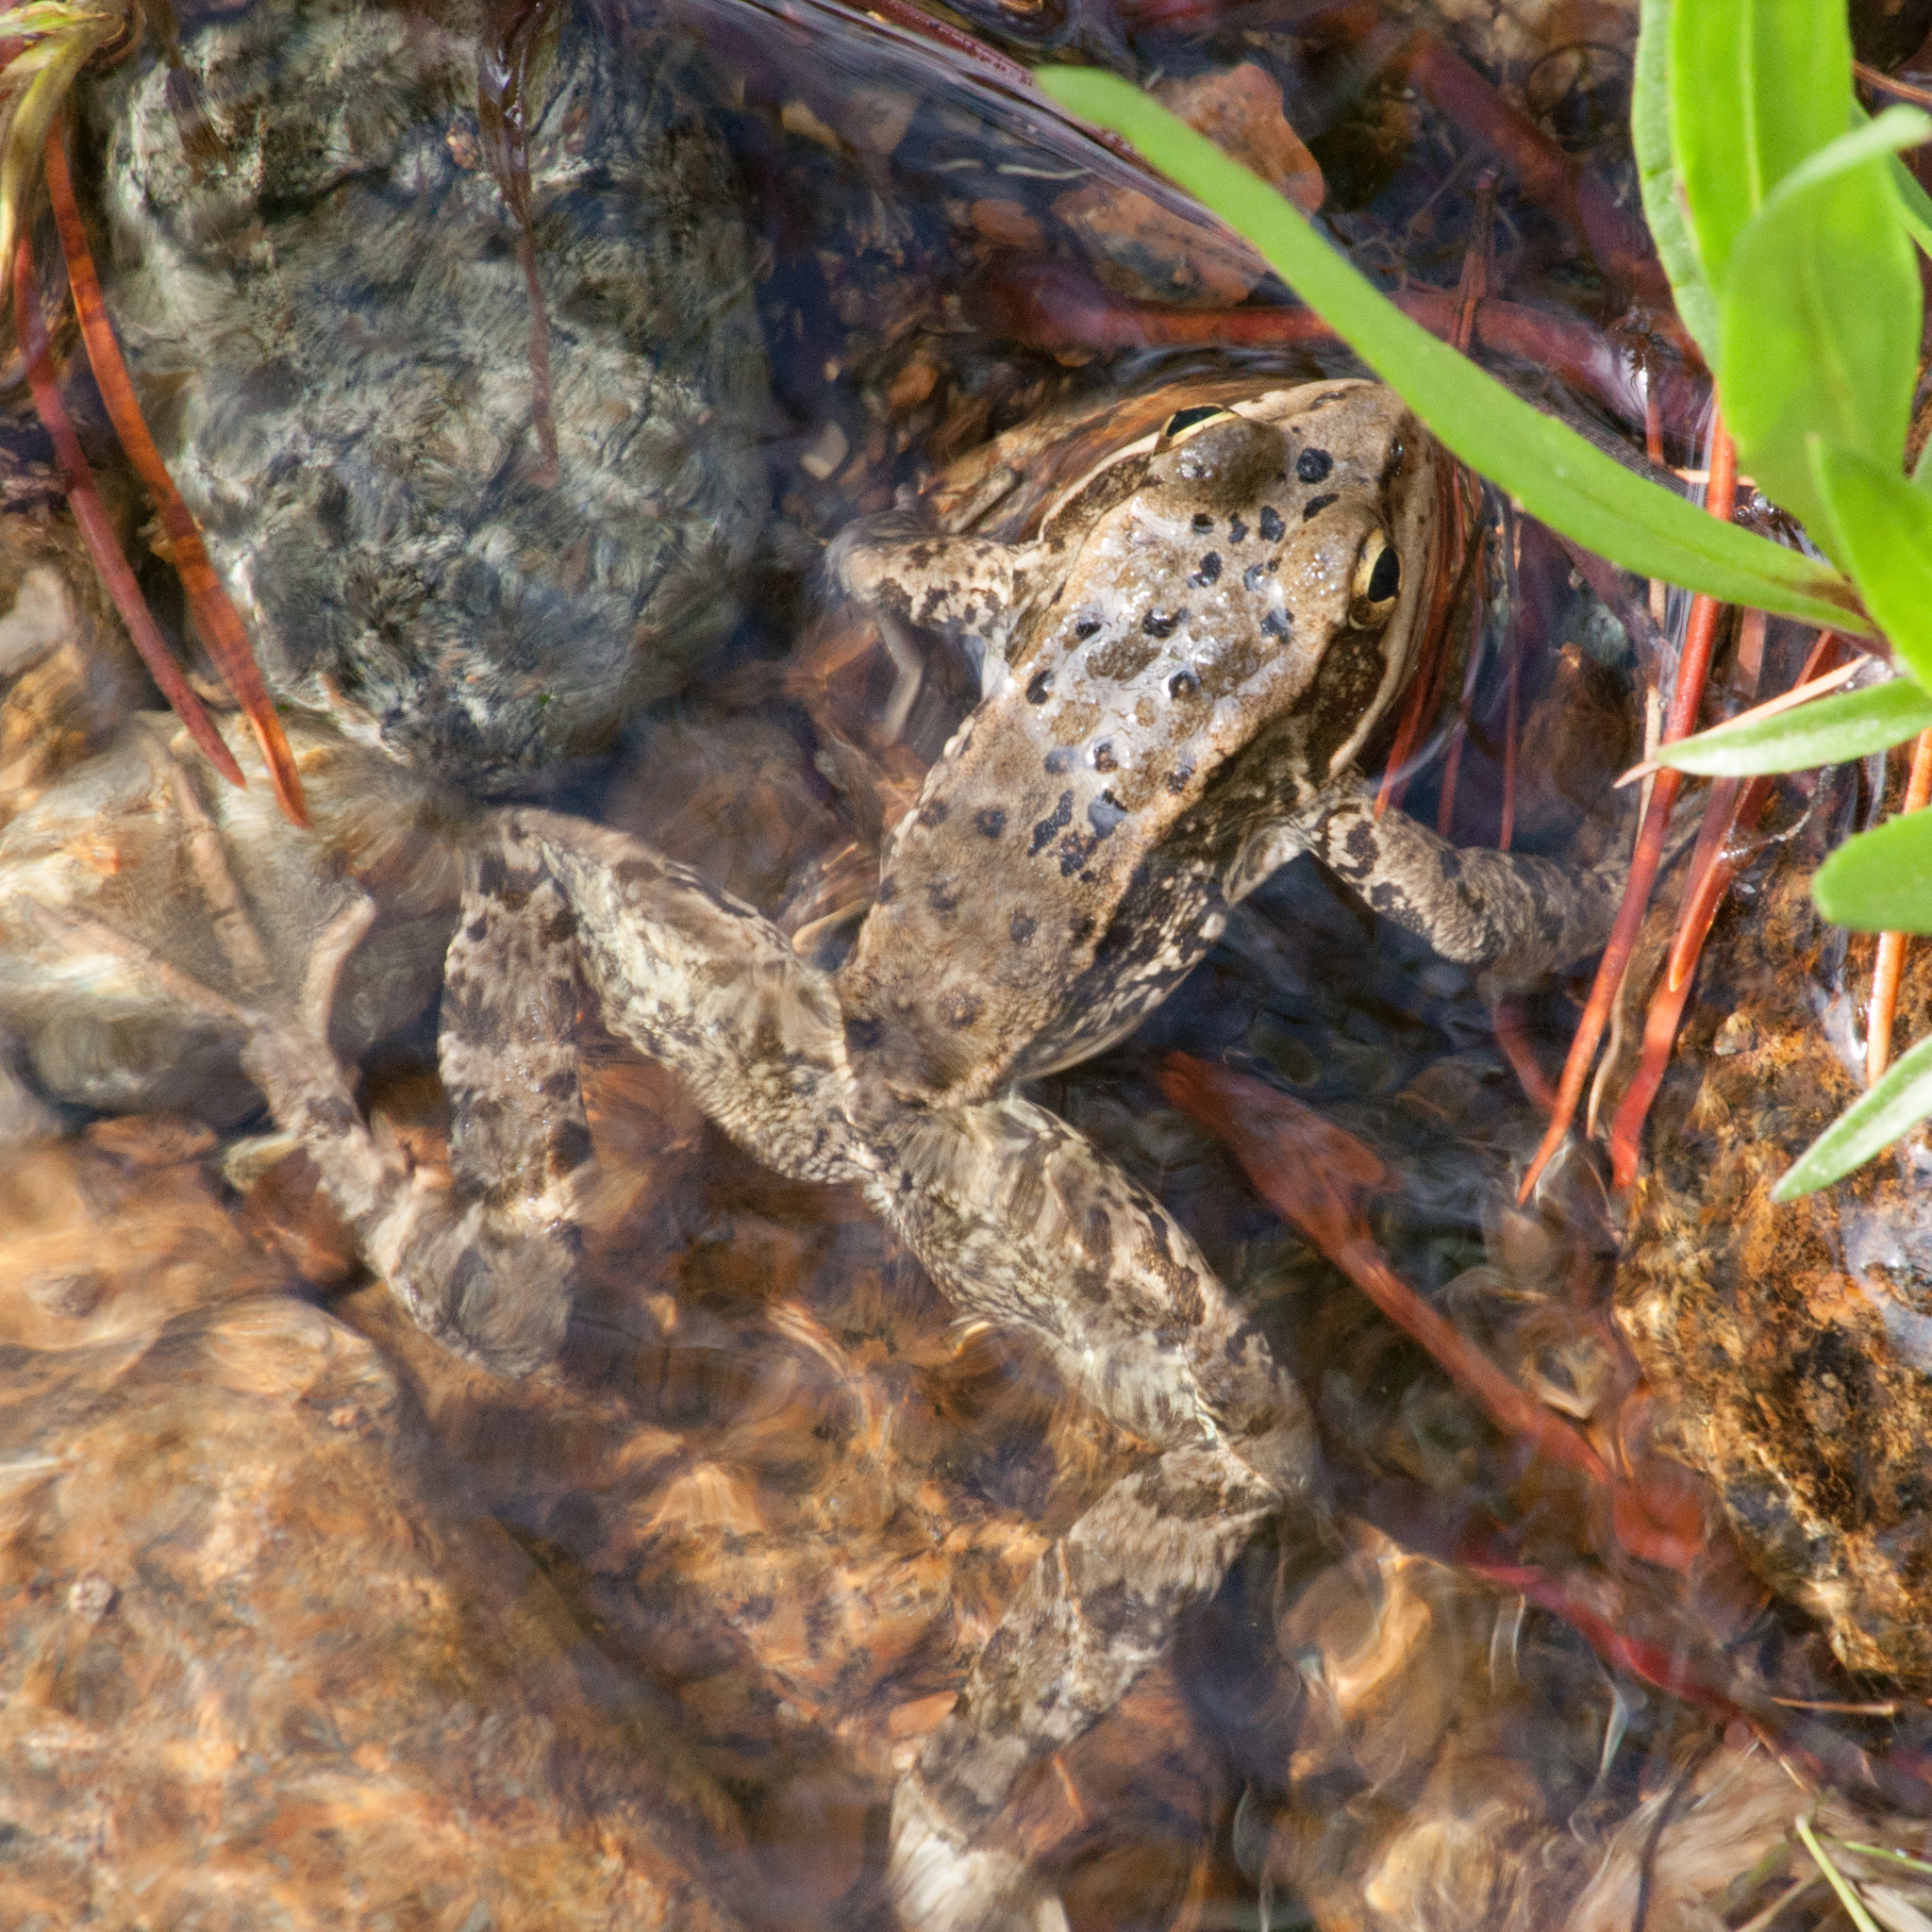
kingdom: Animalia
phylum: Chordata
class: Amphibia
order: Anura
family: Ranidae
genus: Rana
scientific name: Rana cascadae
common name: Cascades frog
